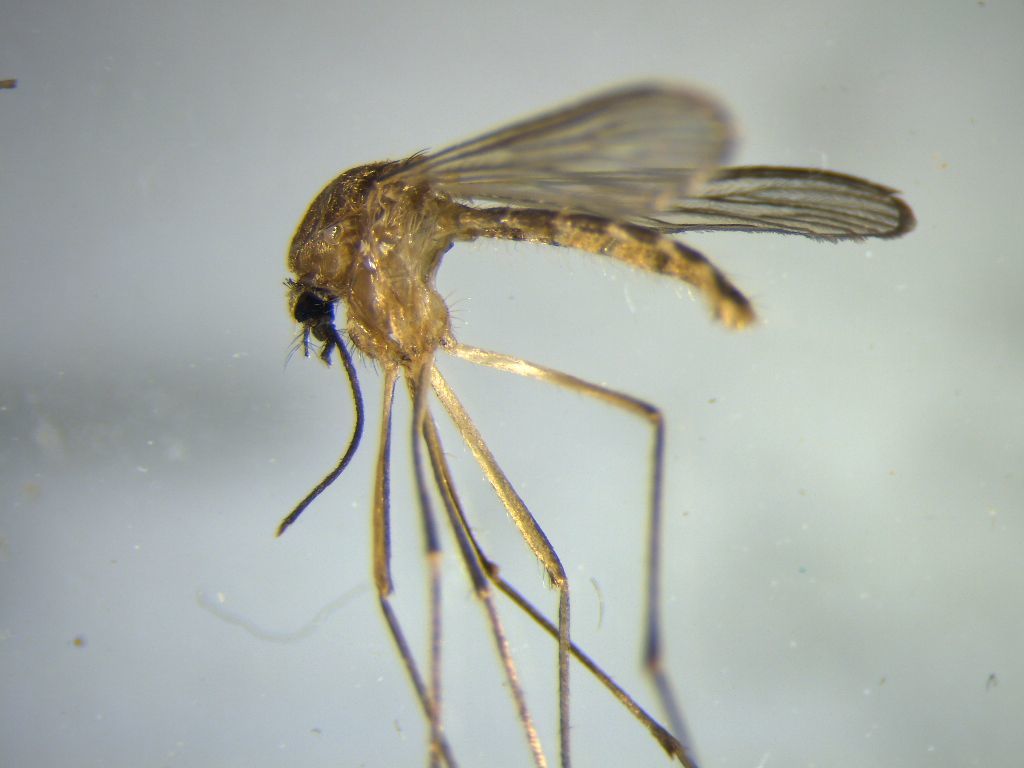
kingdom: Animalia
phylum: Arthropoda
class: Insecta
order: Diptera
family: Culicidae
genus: Culex
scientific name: Culex quinquefasciatus
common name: Southern house mosquito
